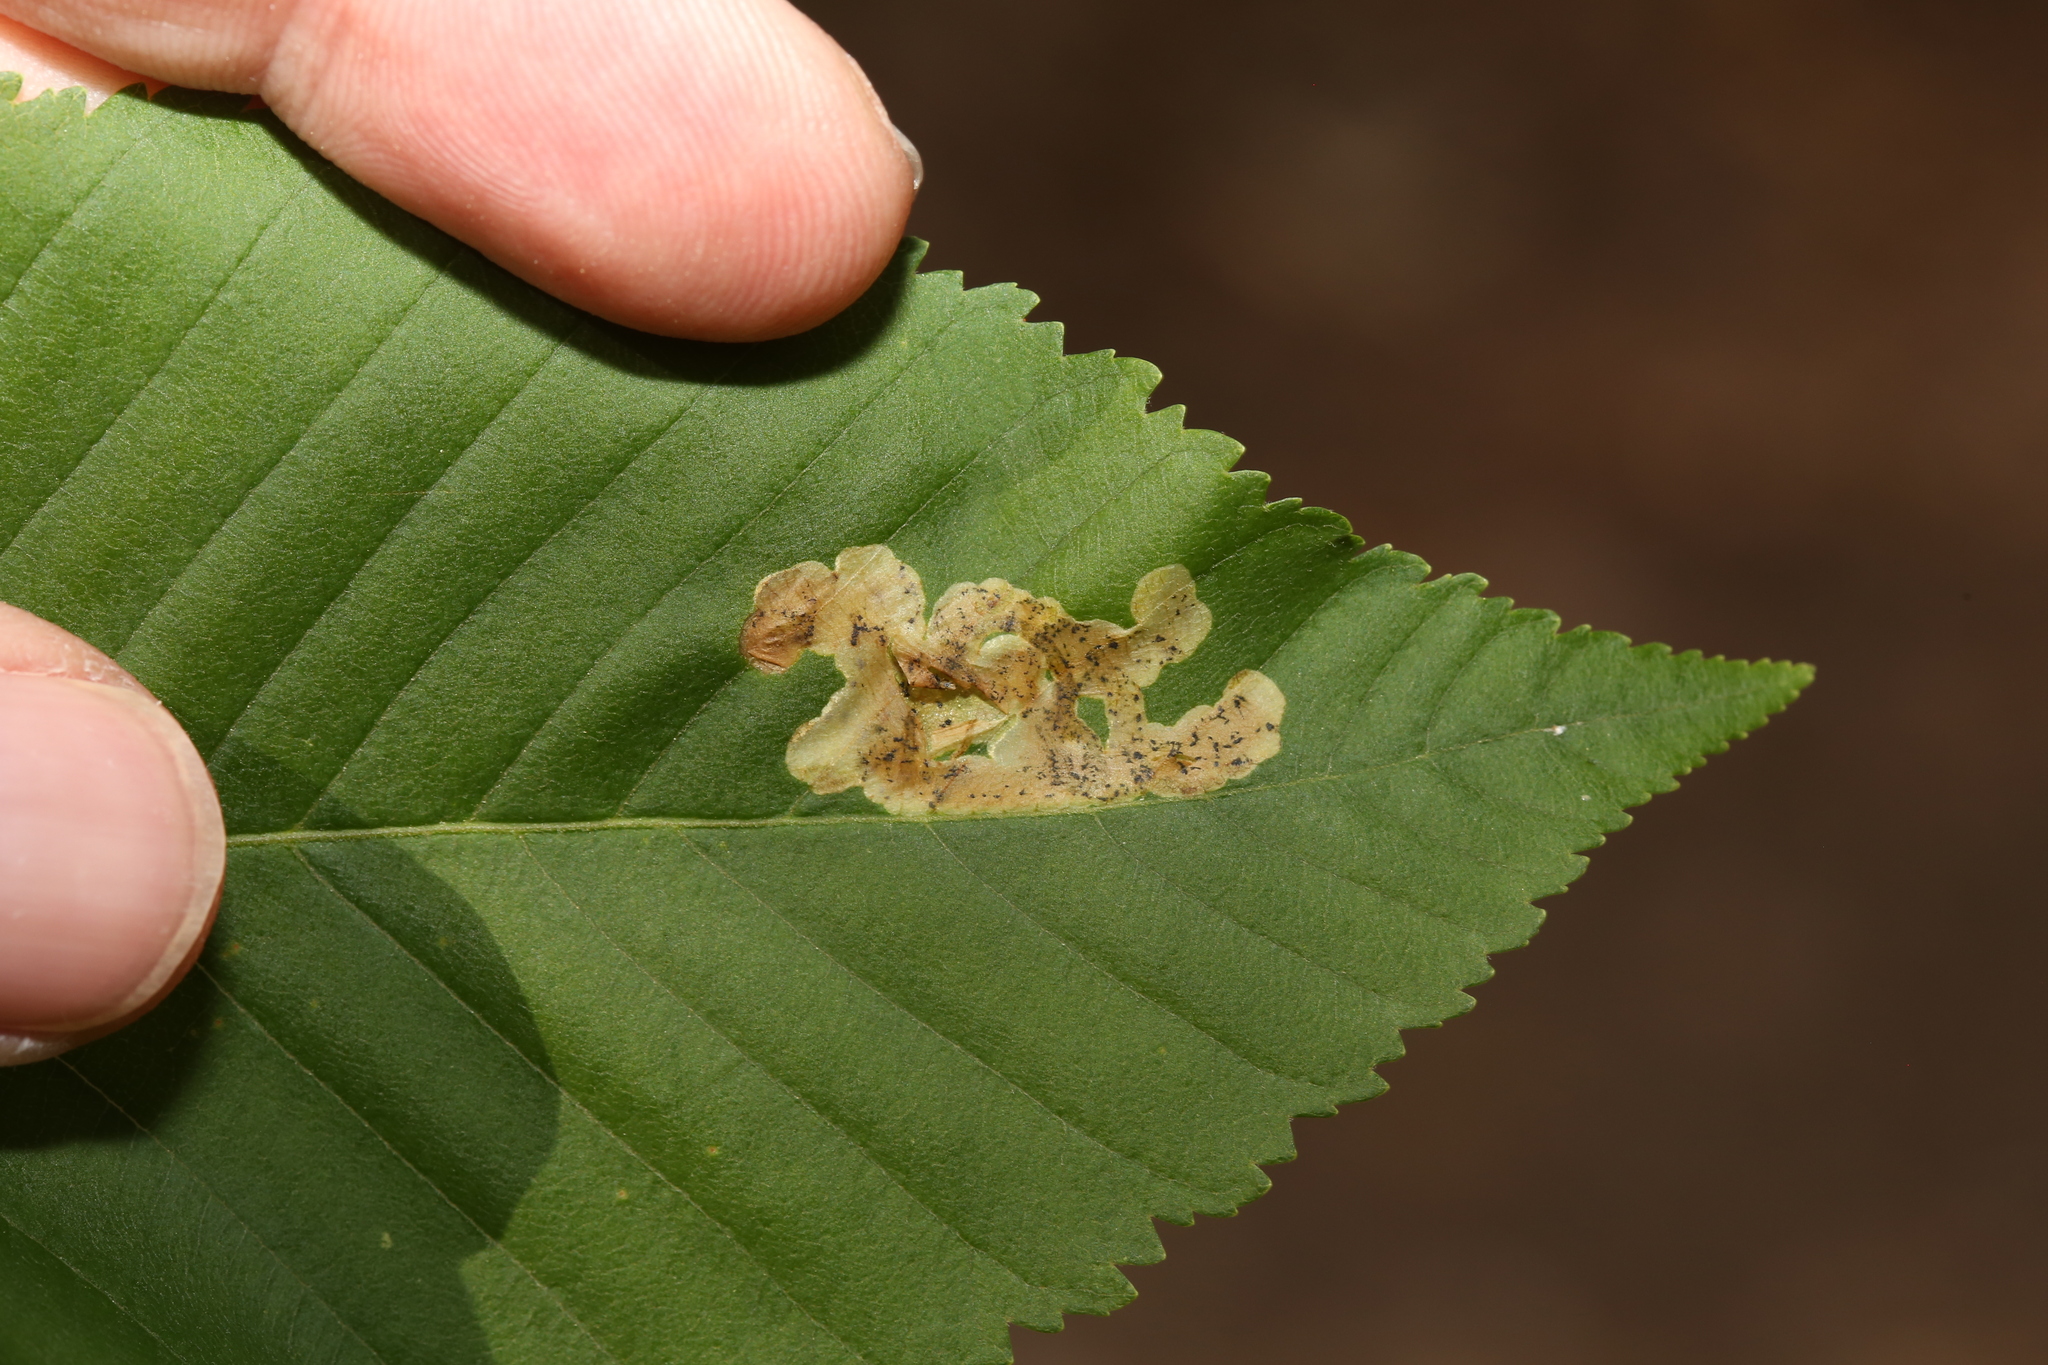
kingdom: Animalia
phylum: Arthropoda
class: Insecta
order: Diptera
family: Agromyzidae
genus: Phytomyza
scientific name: Phytomyza aesculi
